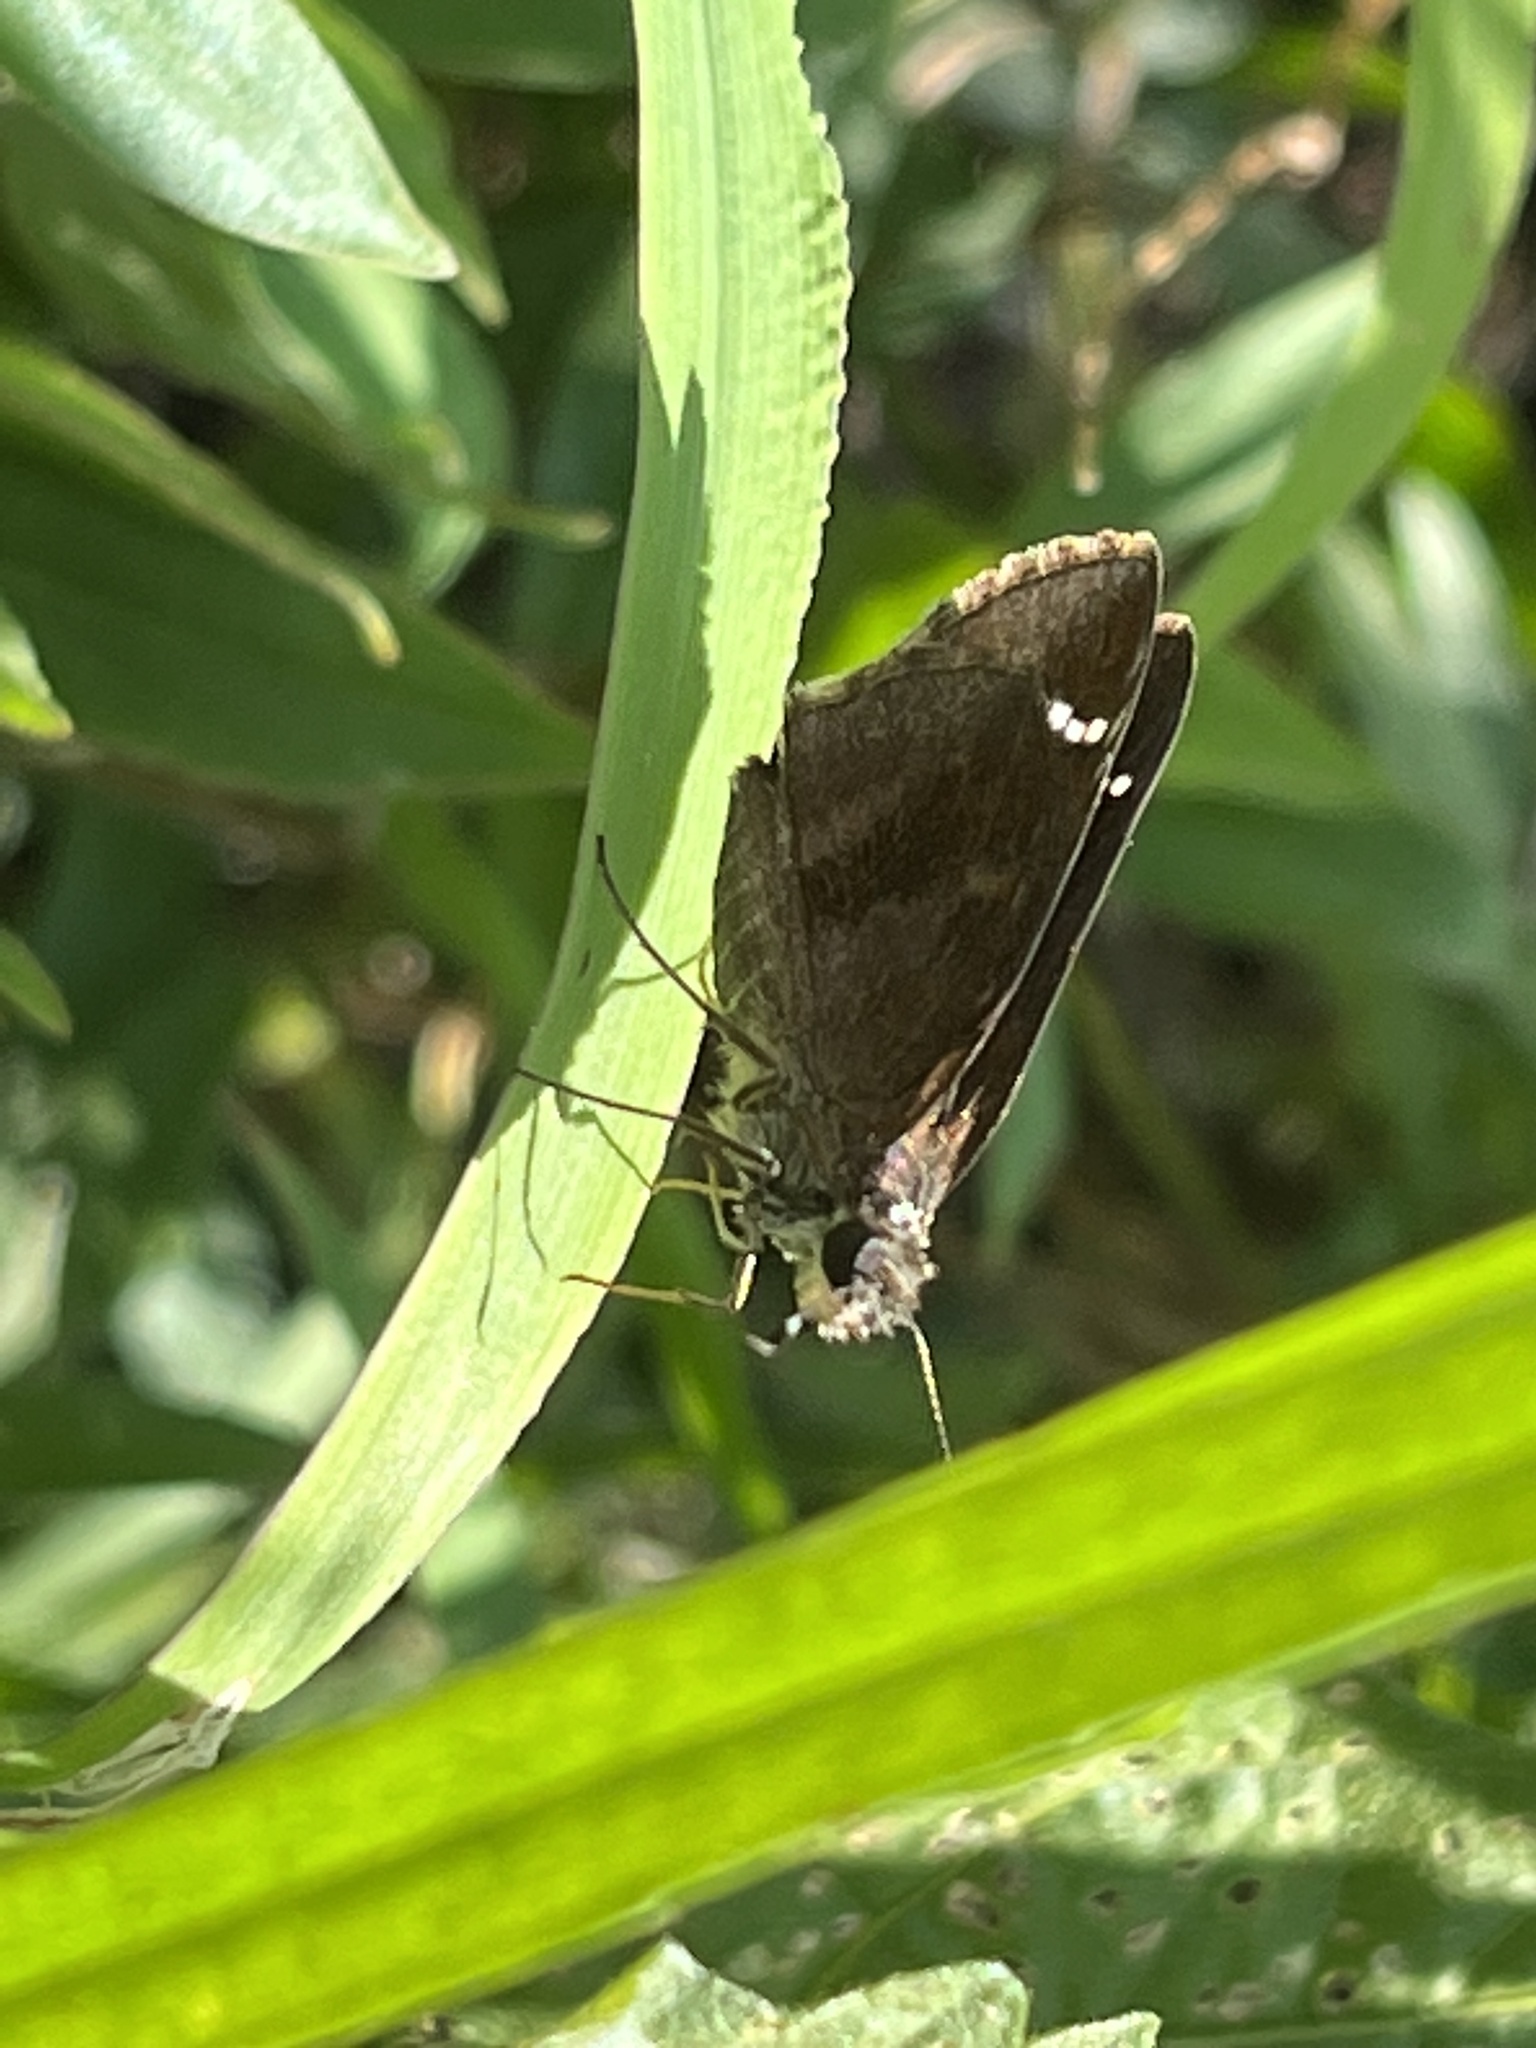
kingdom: Animalia
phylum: Arthropoda
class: Insecta
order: Lepidoptera
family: Hesperiidae
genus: Lerema
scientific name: Lerema accius
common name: Clouded skipper
